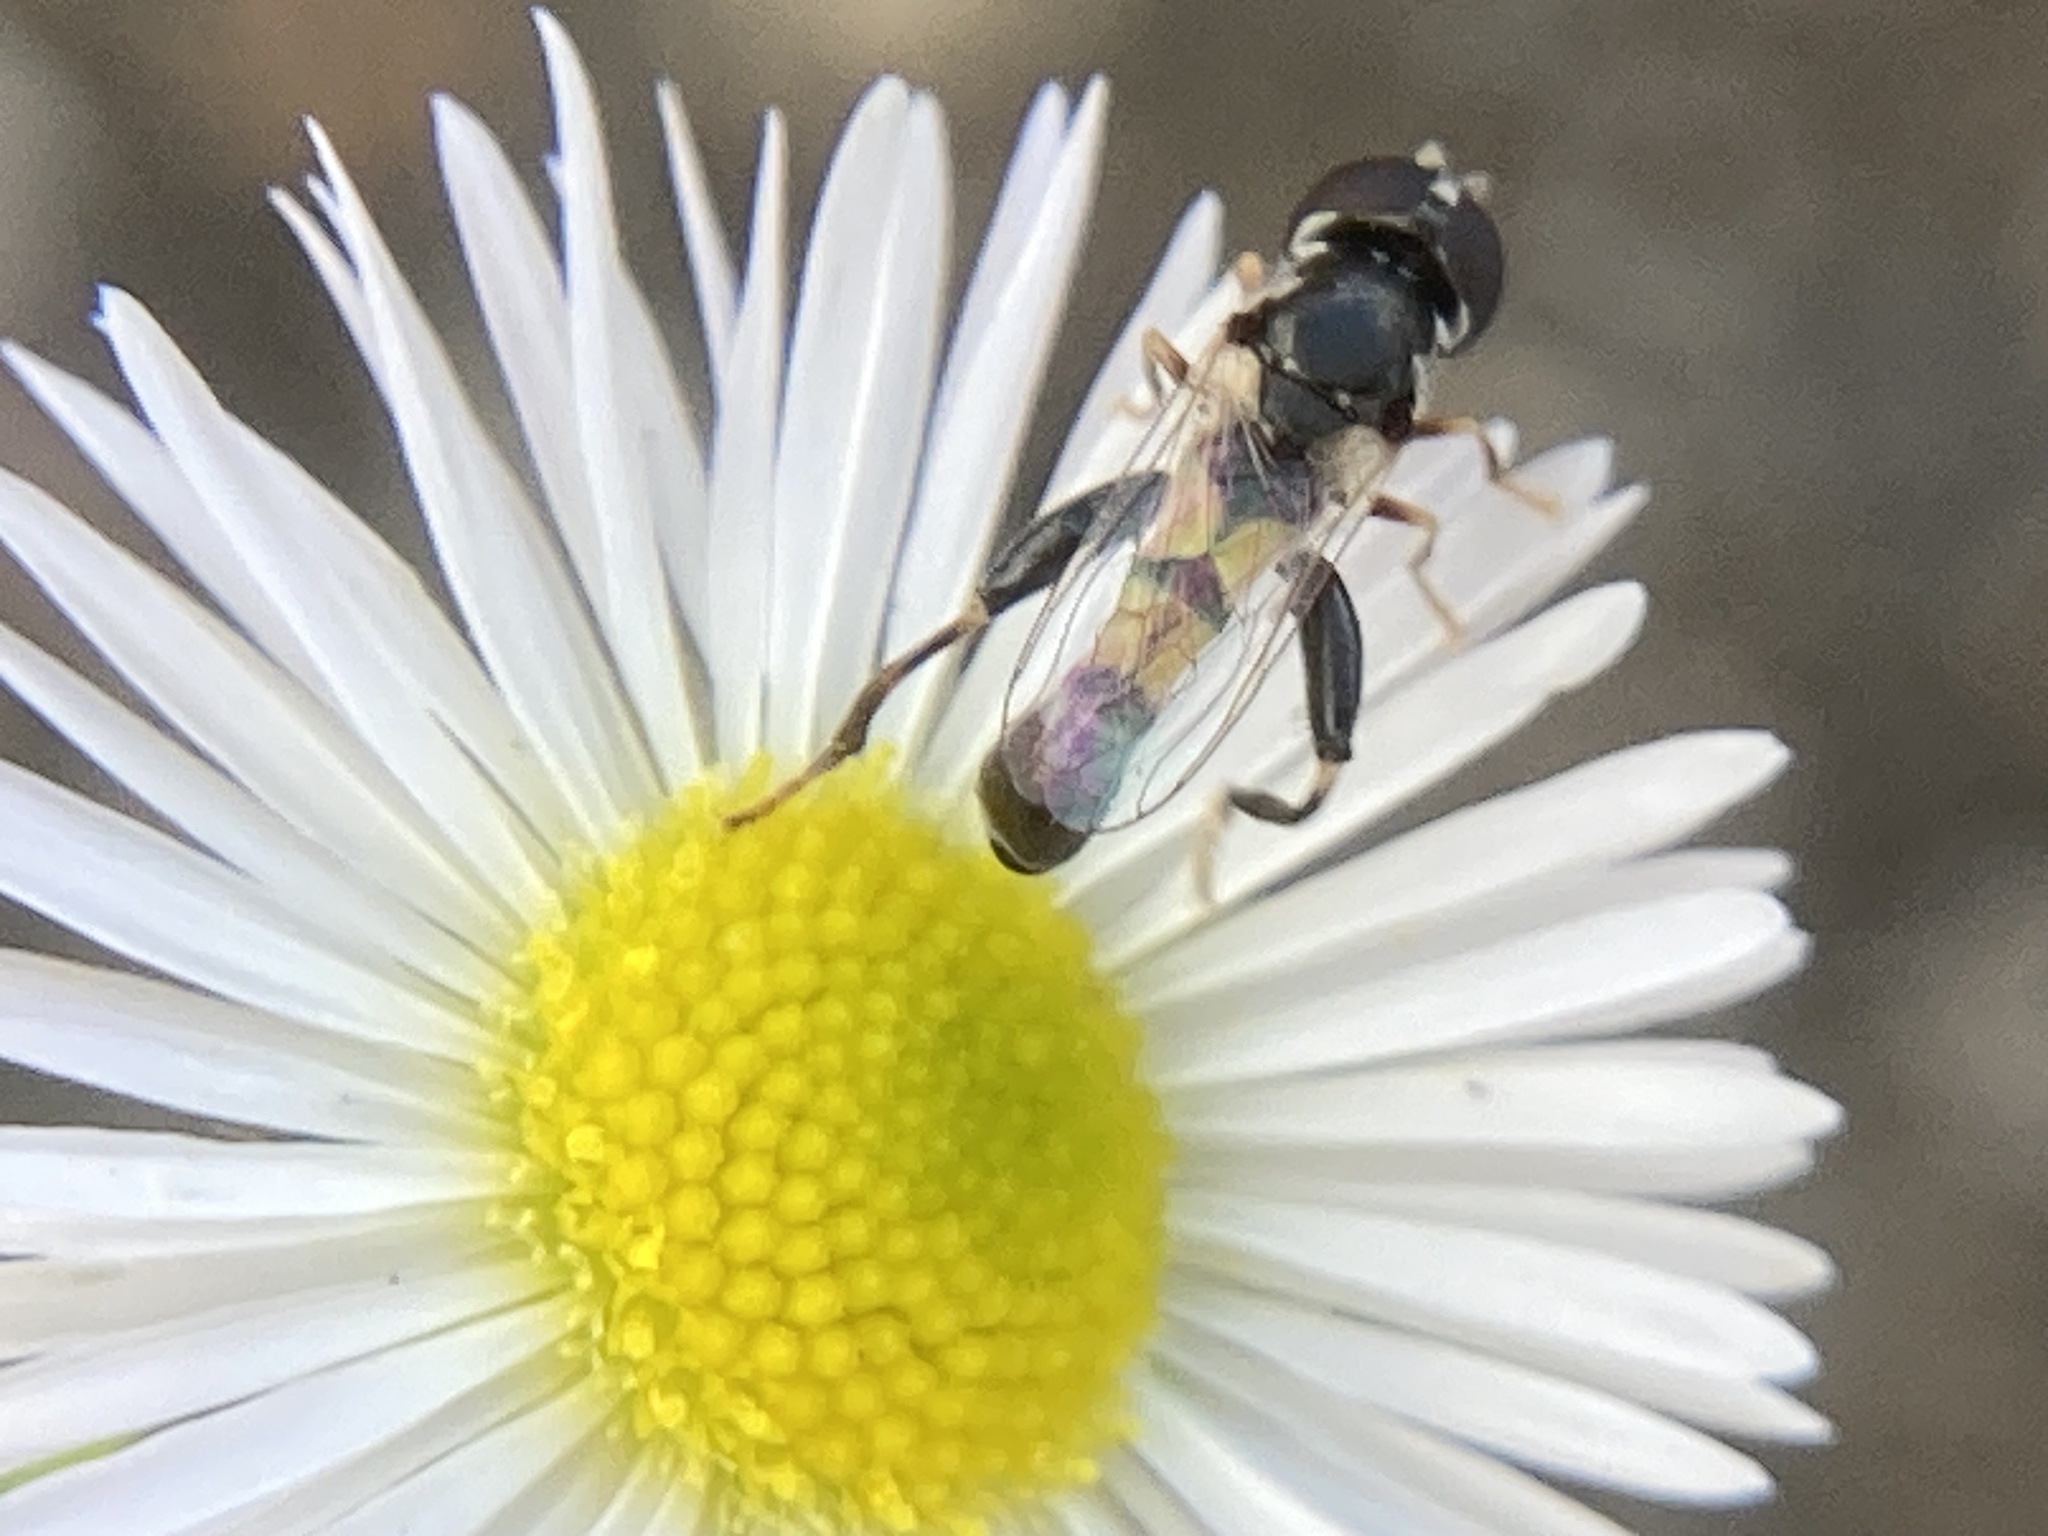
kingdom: Animalia
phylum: Arthropoda
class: Insecta
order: Diptera
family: Syrphidae
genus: Syritta
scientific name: Syritta flaviventris
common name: Syrphid fly
